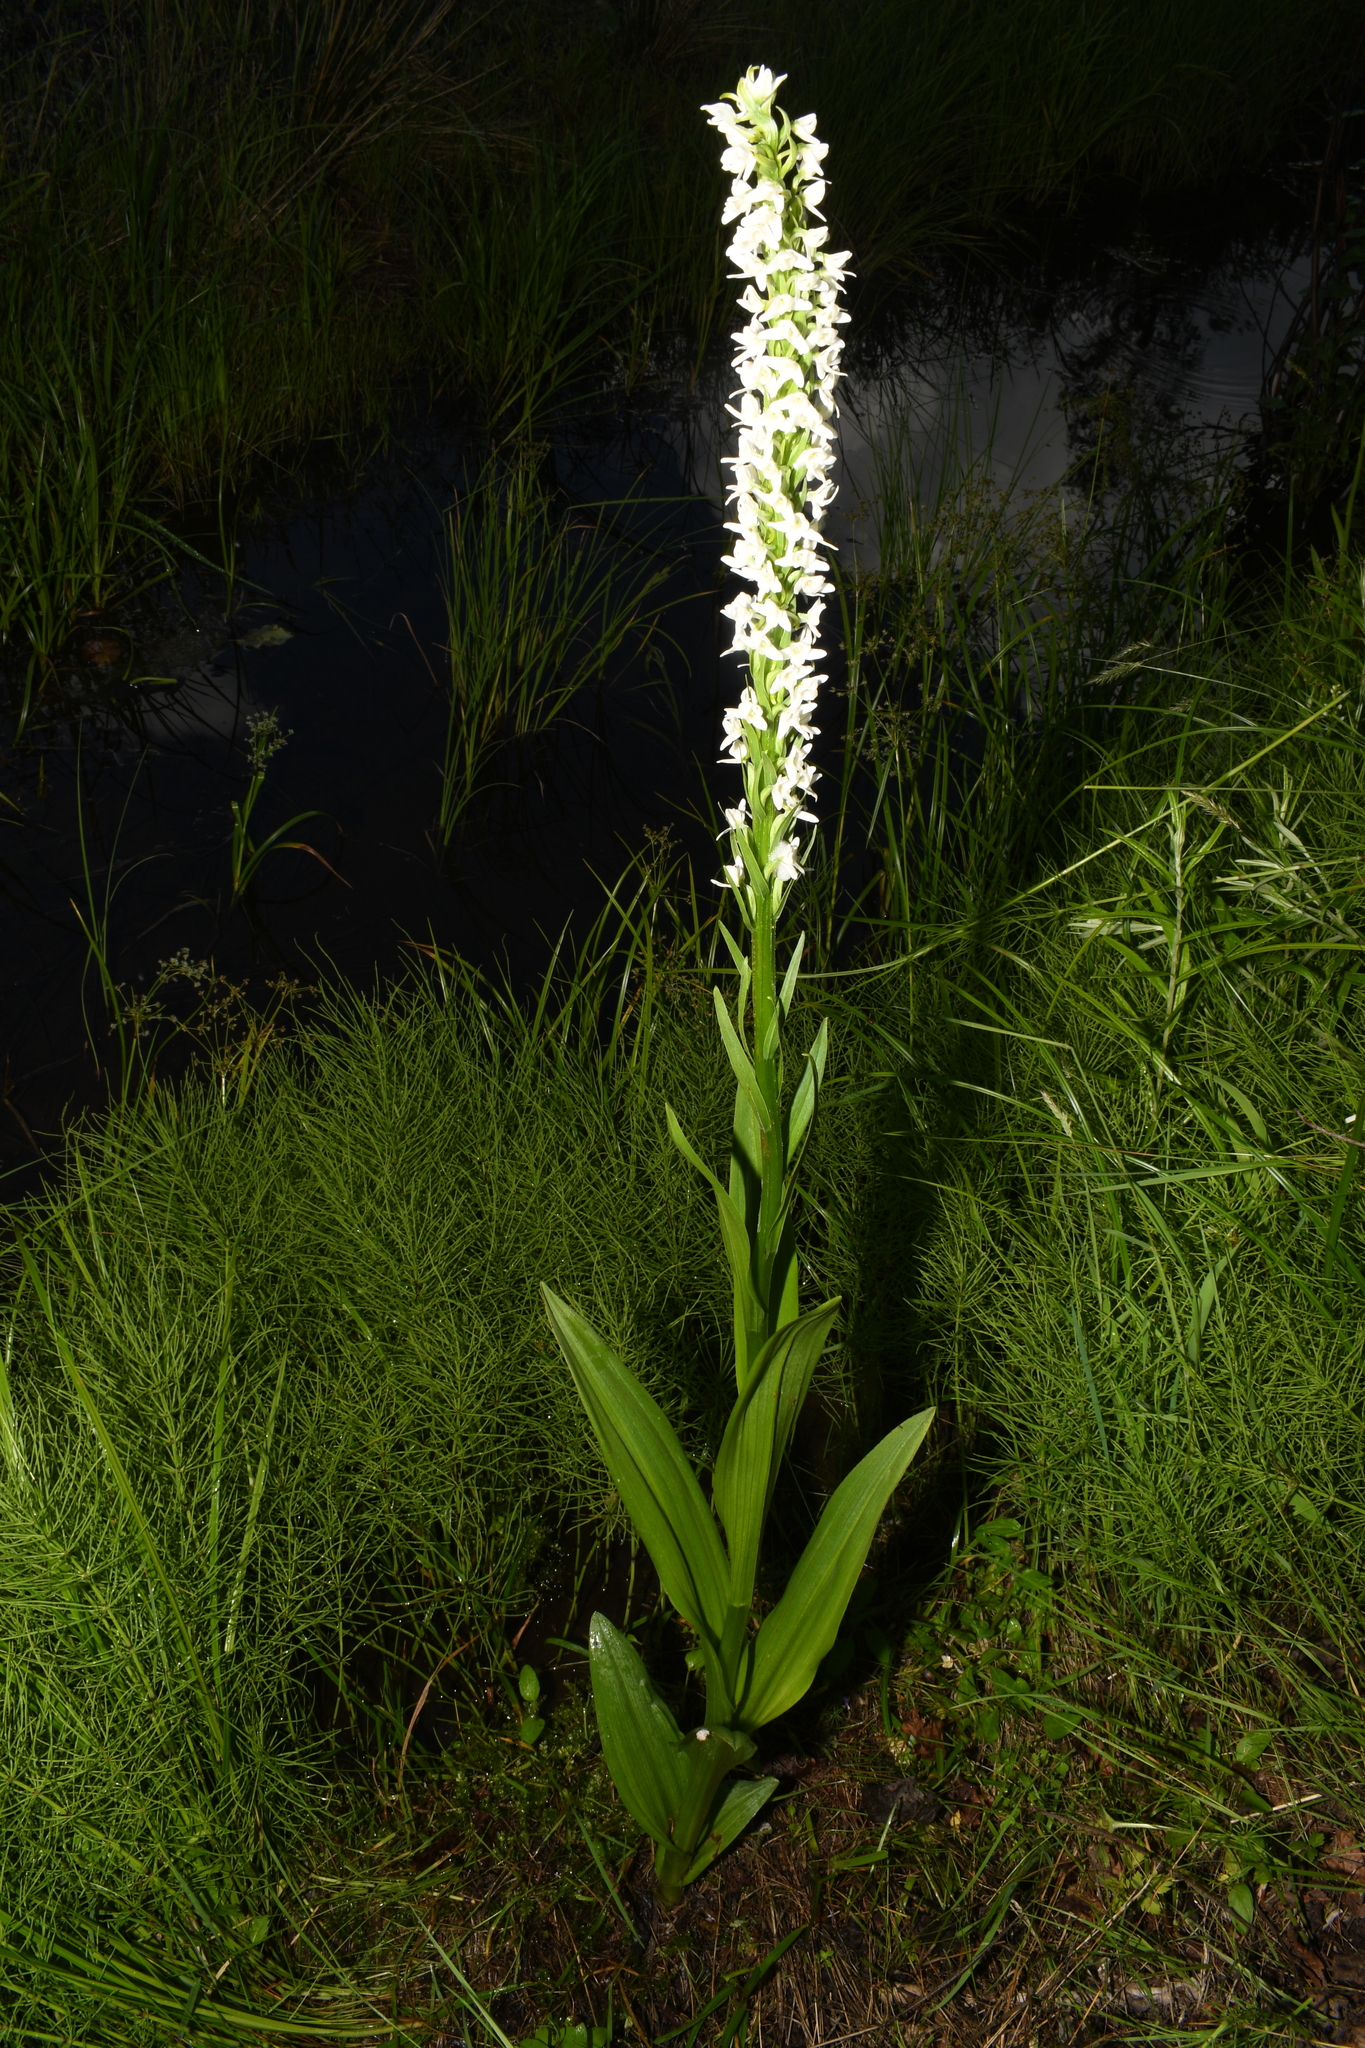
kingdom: Plantae
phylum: Tracheophyta
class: Liliopsida
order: Asparagales
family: Orchidaceae
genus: Platanthera
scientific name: Platanthera dilatata
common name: Bog candles
